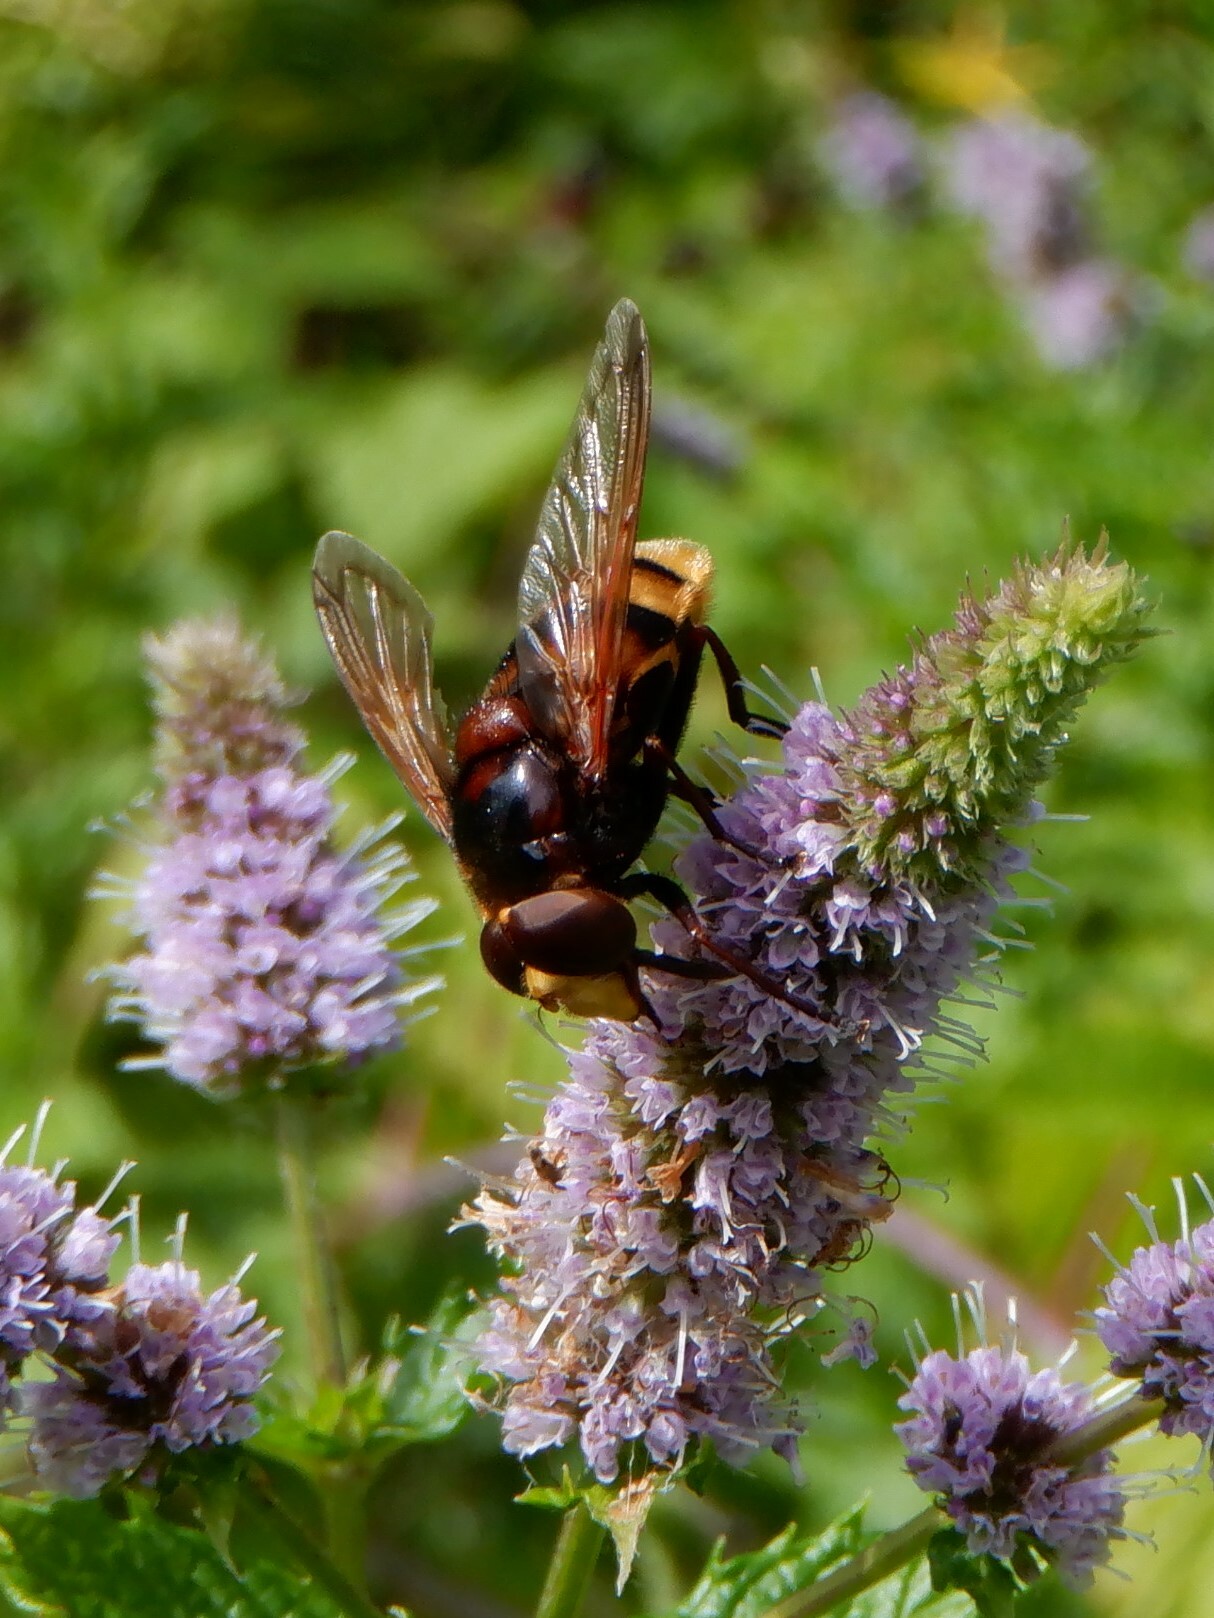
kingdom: Animalia
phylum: Arthropoda
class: Insecta
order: Diptera
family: Syrphidae
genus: Volucella
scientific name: Volucella zonaria
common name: Hornet hoverfly
